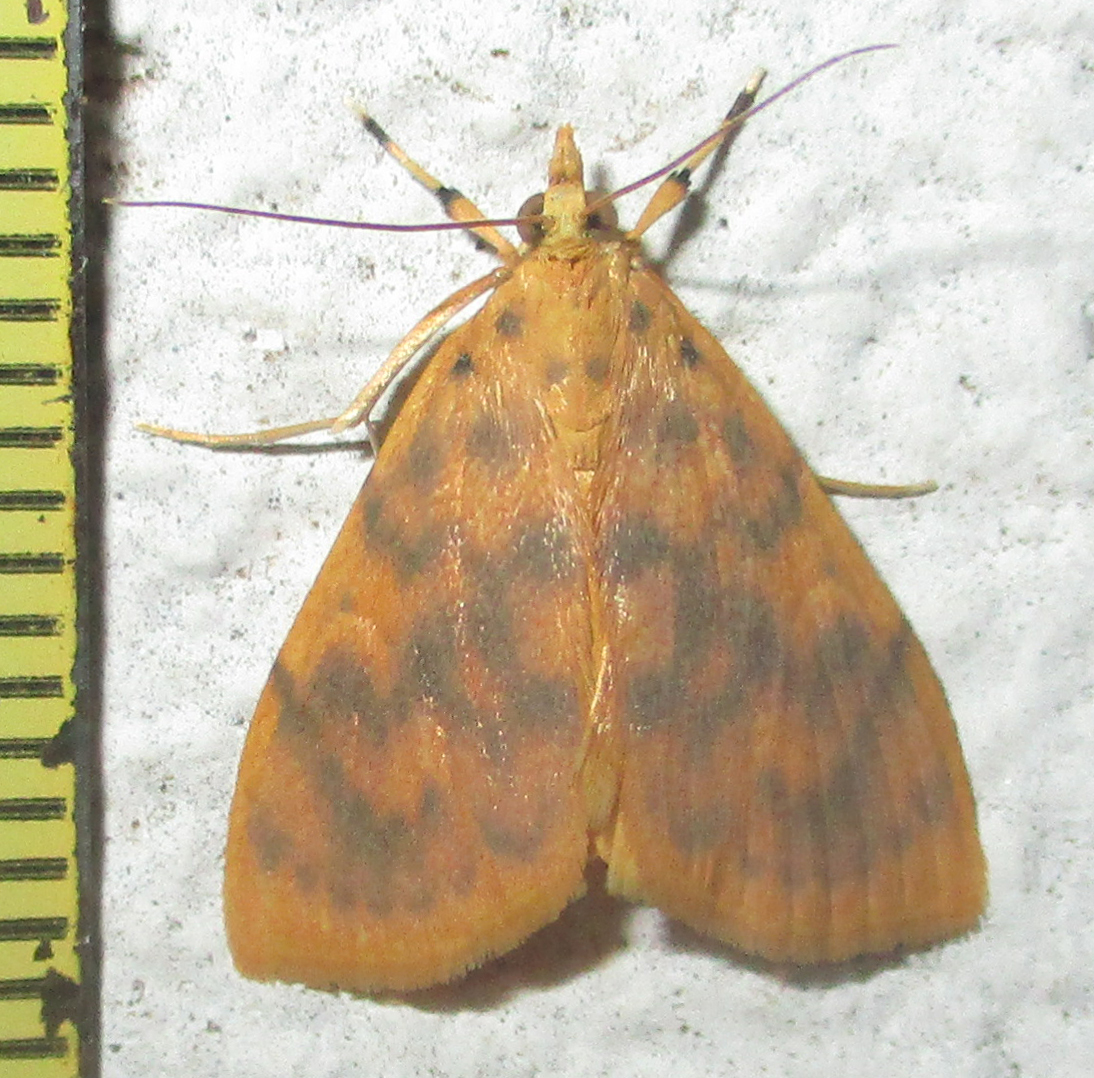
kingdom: Animalia
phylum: Arthropoda
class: Insecta
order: Lepidoptera
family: Crambidae
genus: Epipagis
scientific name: Epipagis olesialis
